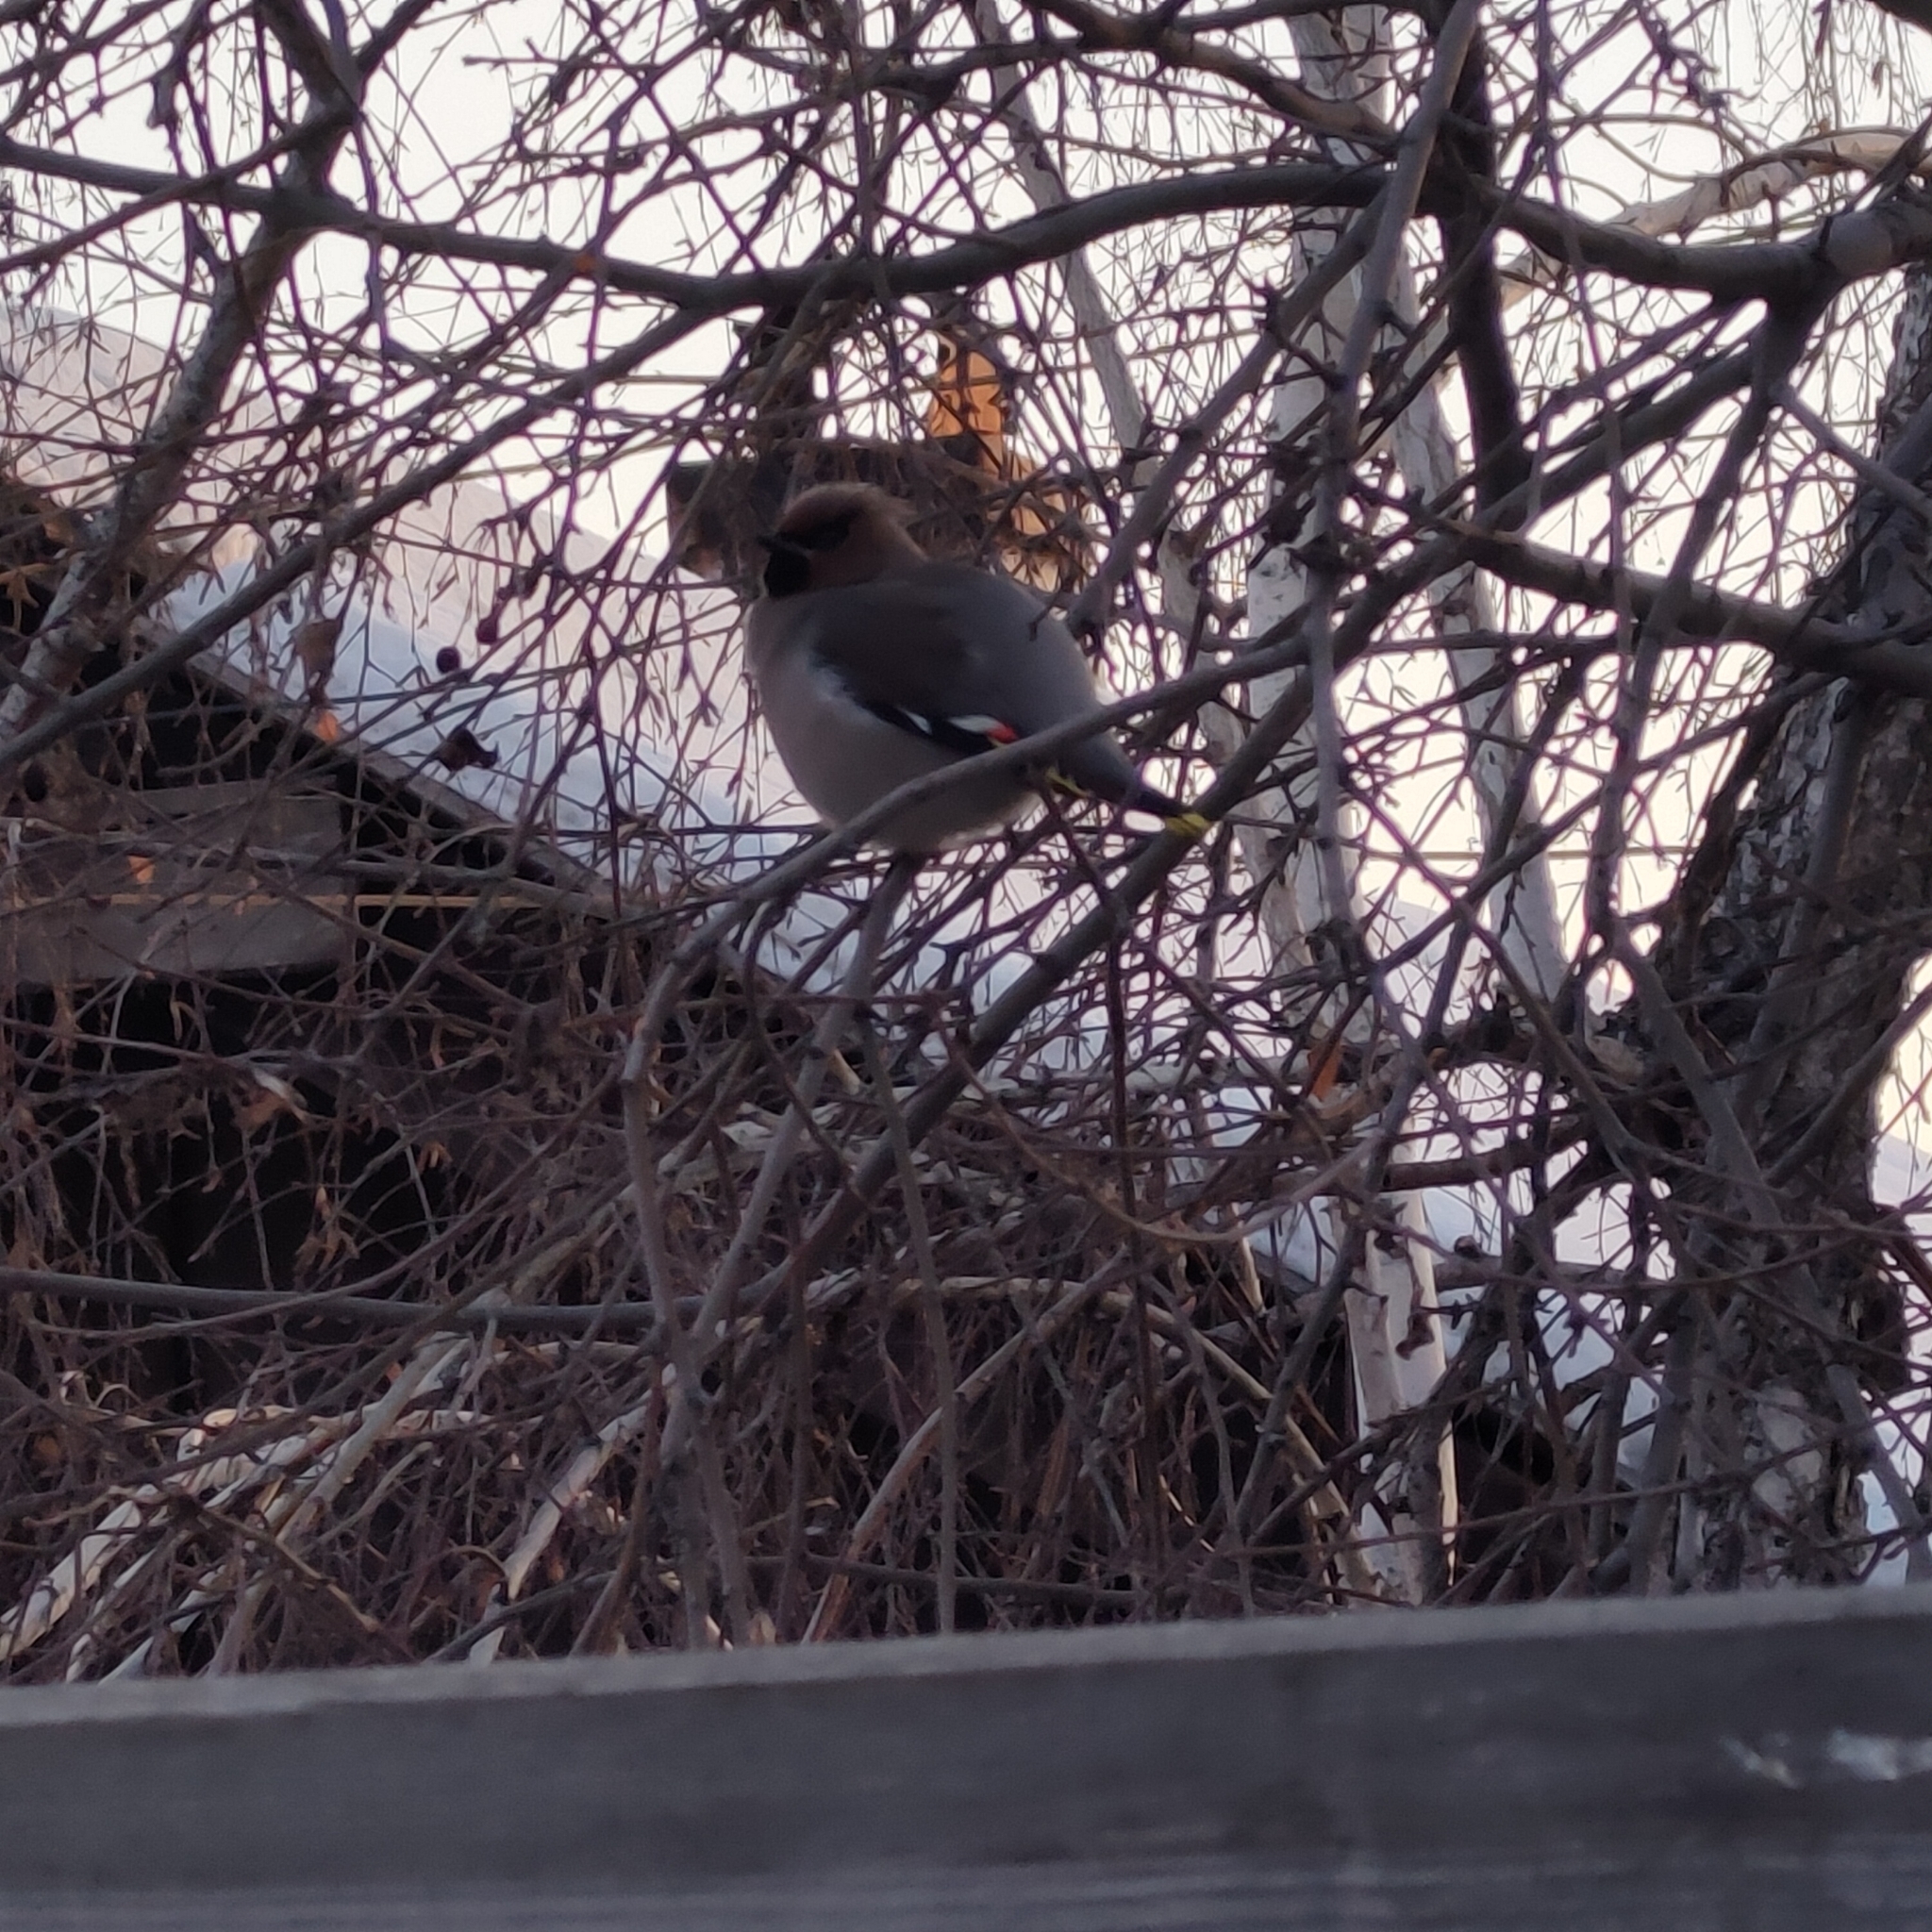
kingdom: Animalia
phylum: Chordata
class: Aves
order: Passeriformes
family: Bombycillidae
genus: Bombycilla
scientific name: Bombycilla garrulus
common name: Bohemian waxwing
